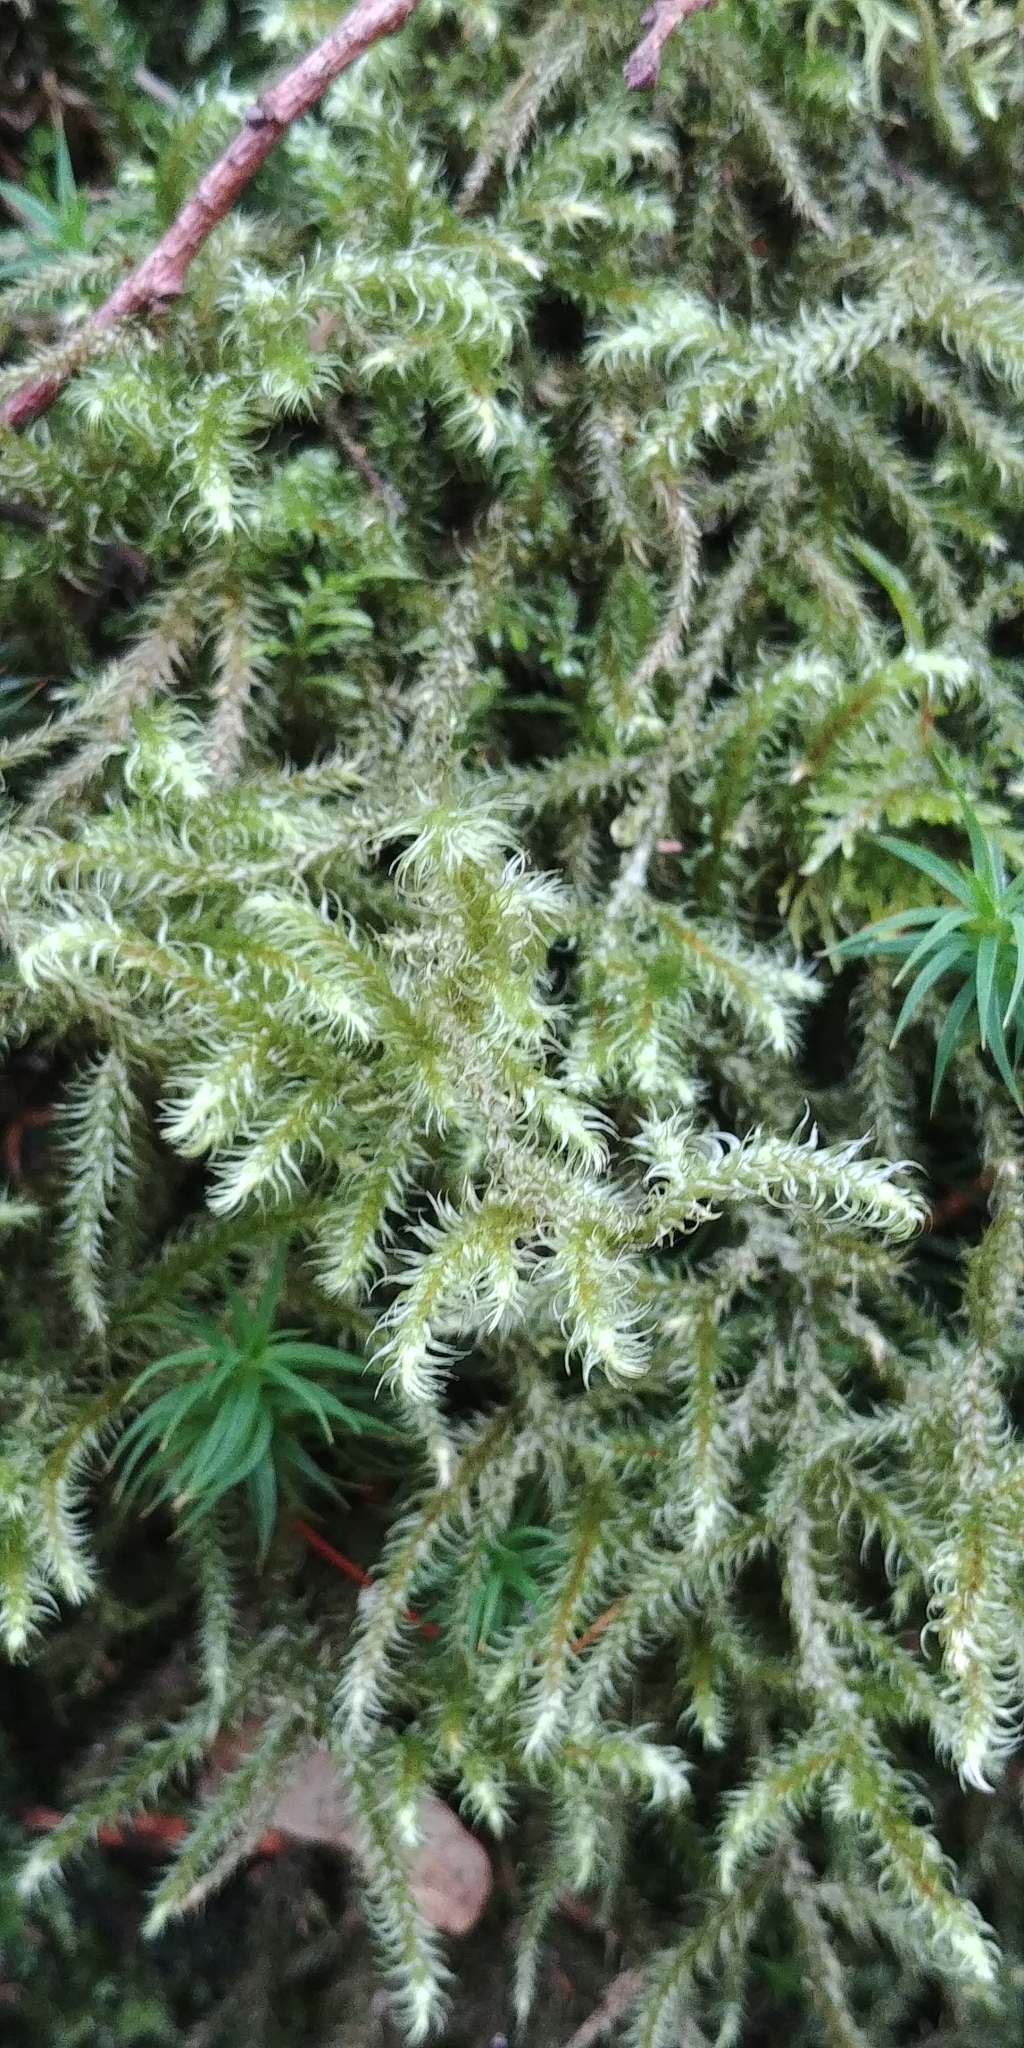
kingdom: Plantae
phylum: Bryophyta
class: Bryopsida
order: Hypnales
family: Hylocomiaceae
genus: Rhytidiadelphus
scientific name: Rhytidiadelphus loreus
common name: Lanky moss
